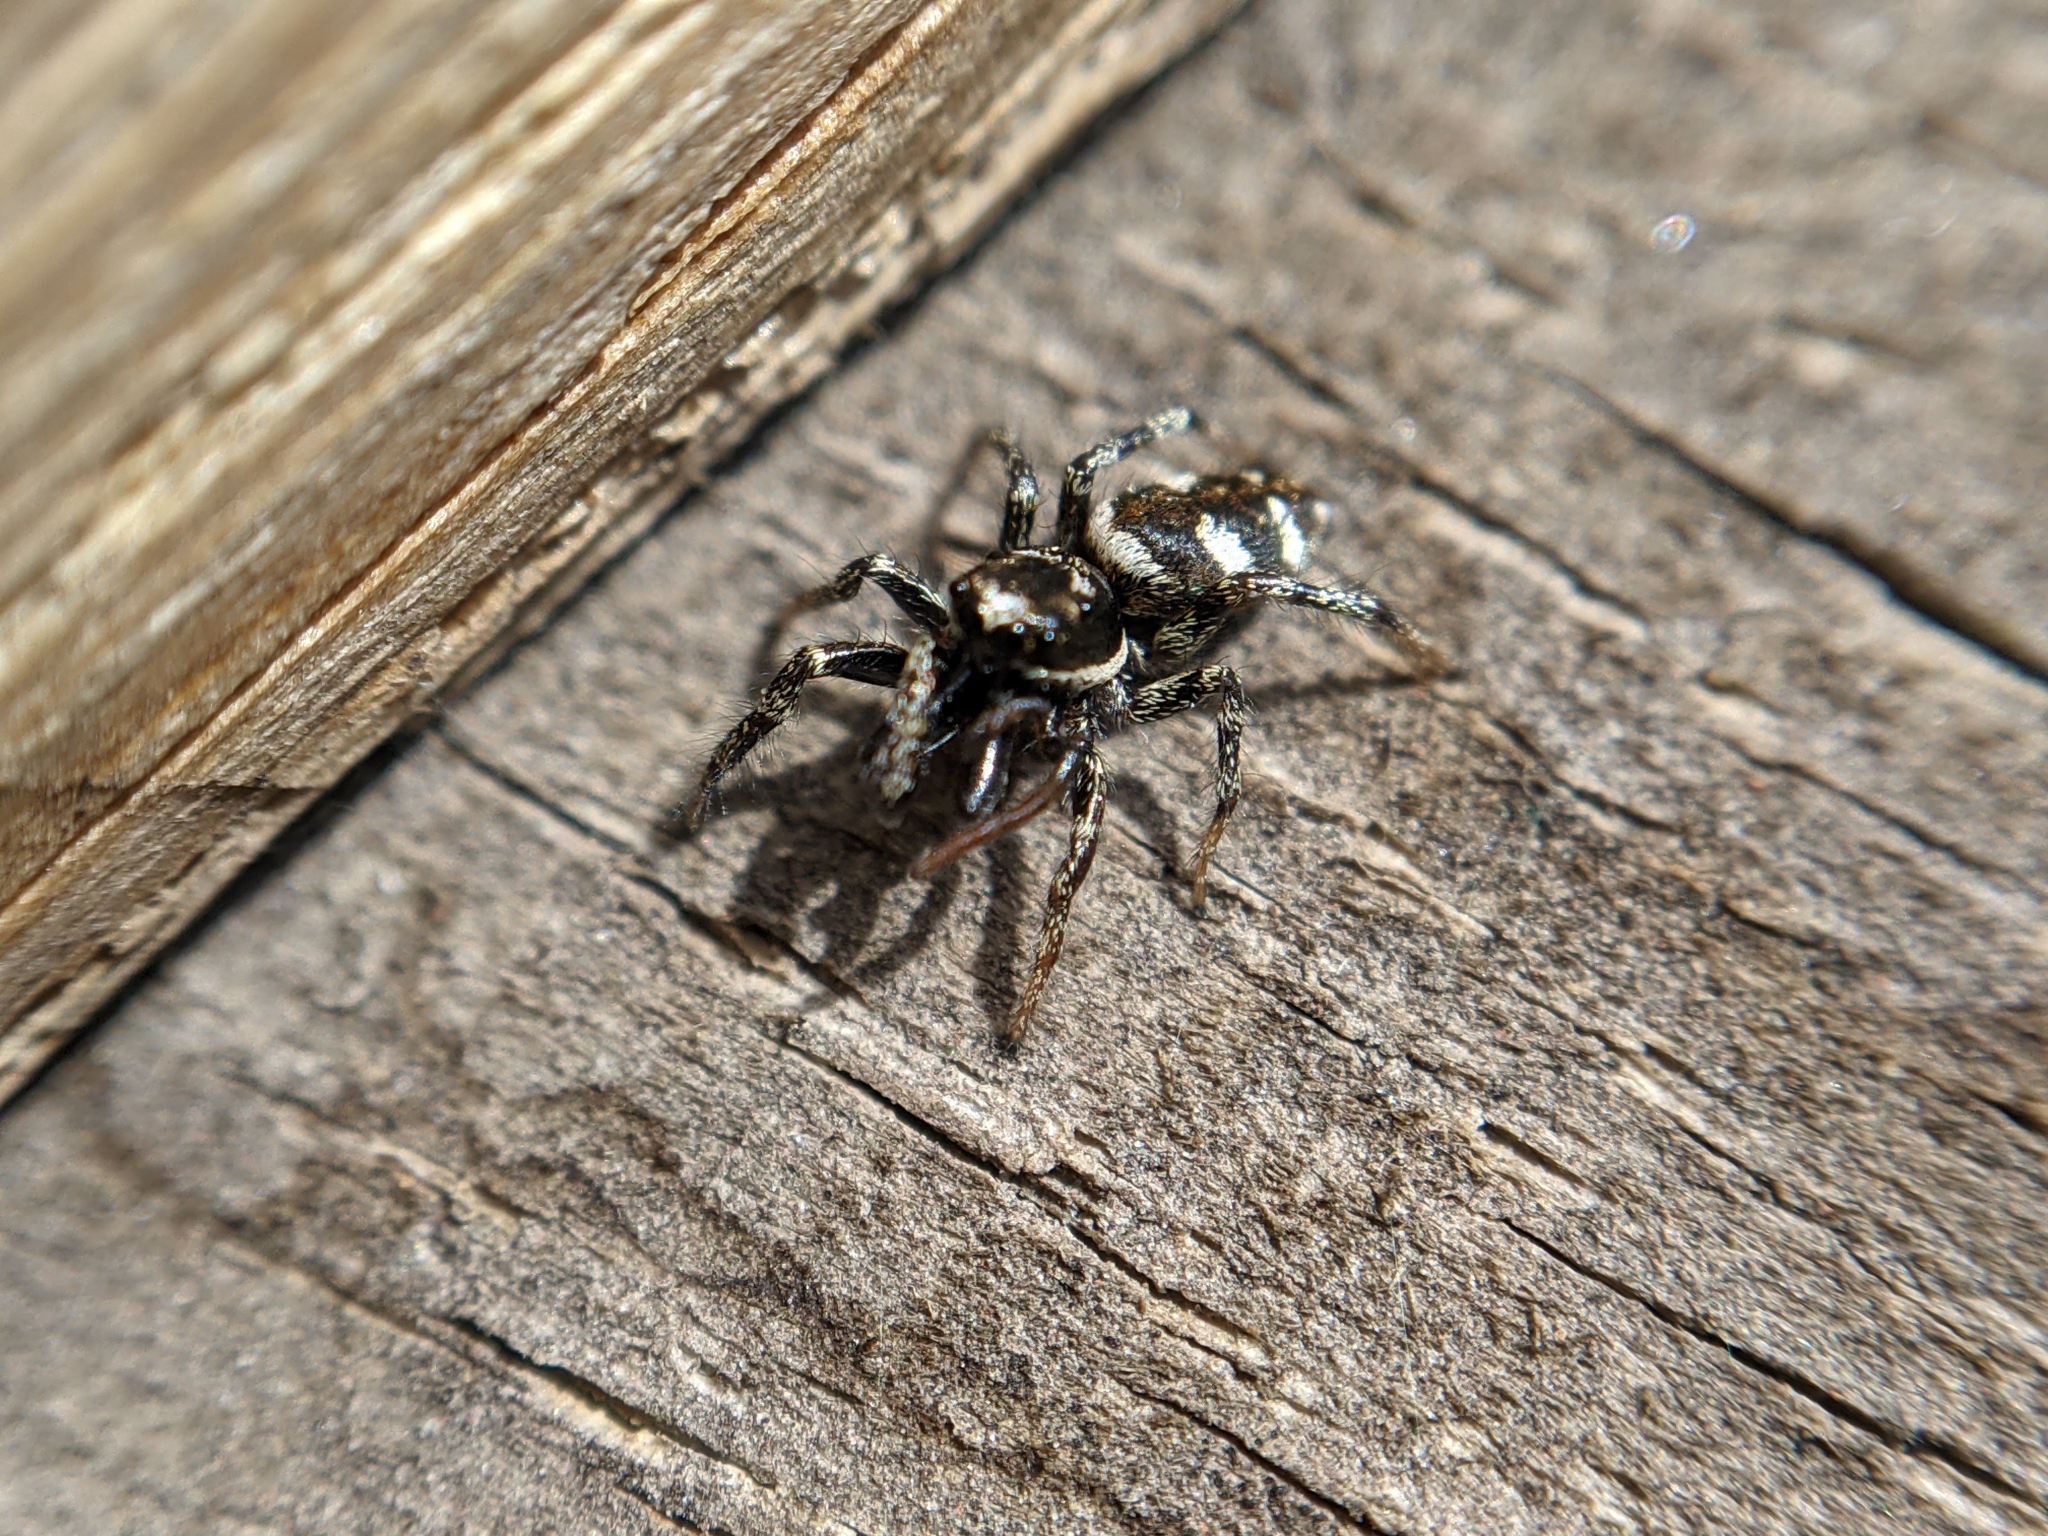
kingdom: Animalia
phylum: Arthropoda
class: Arachnida
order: Araneae
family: Salticidae
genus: Salticus
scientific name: Salticus scenicus
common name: Zebra jumper
